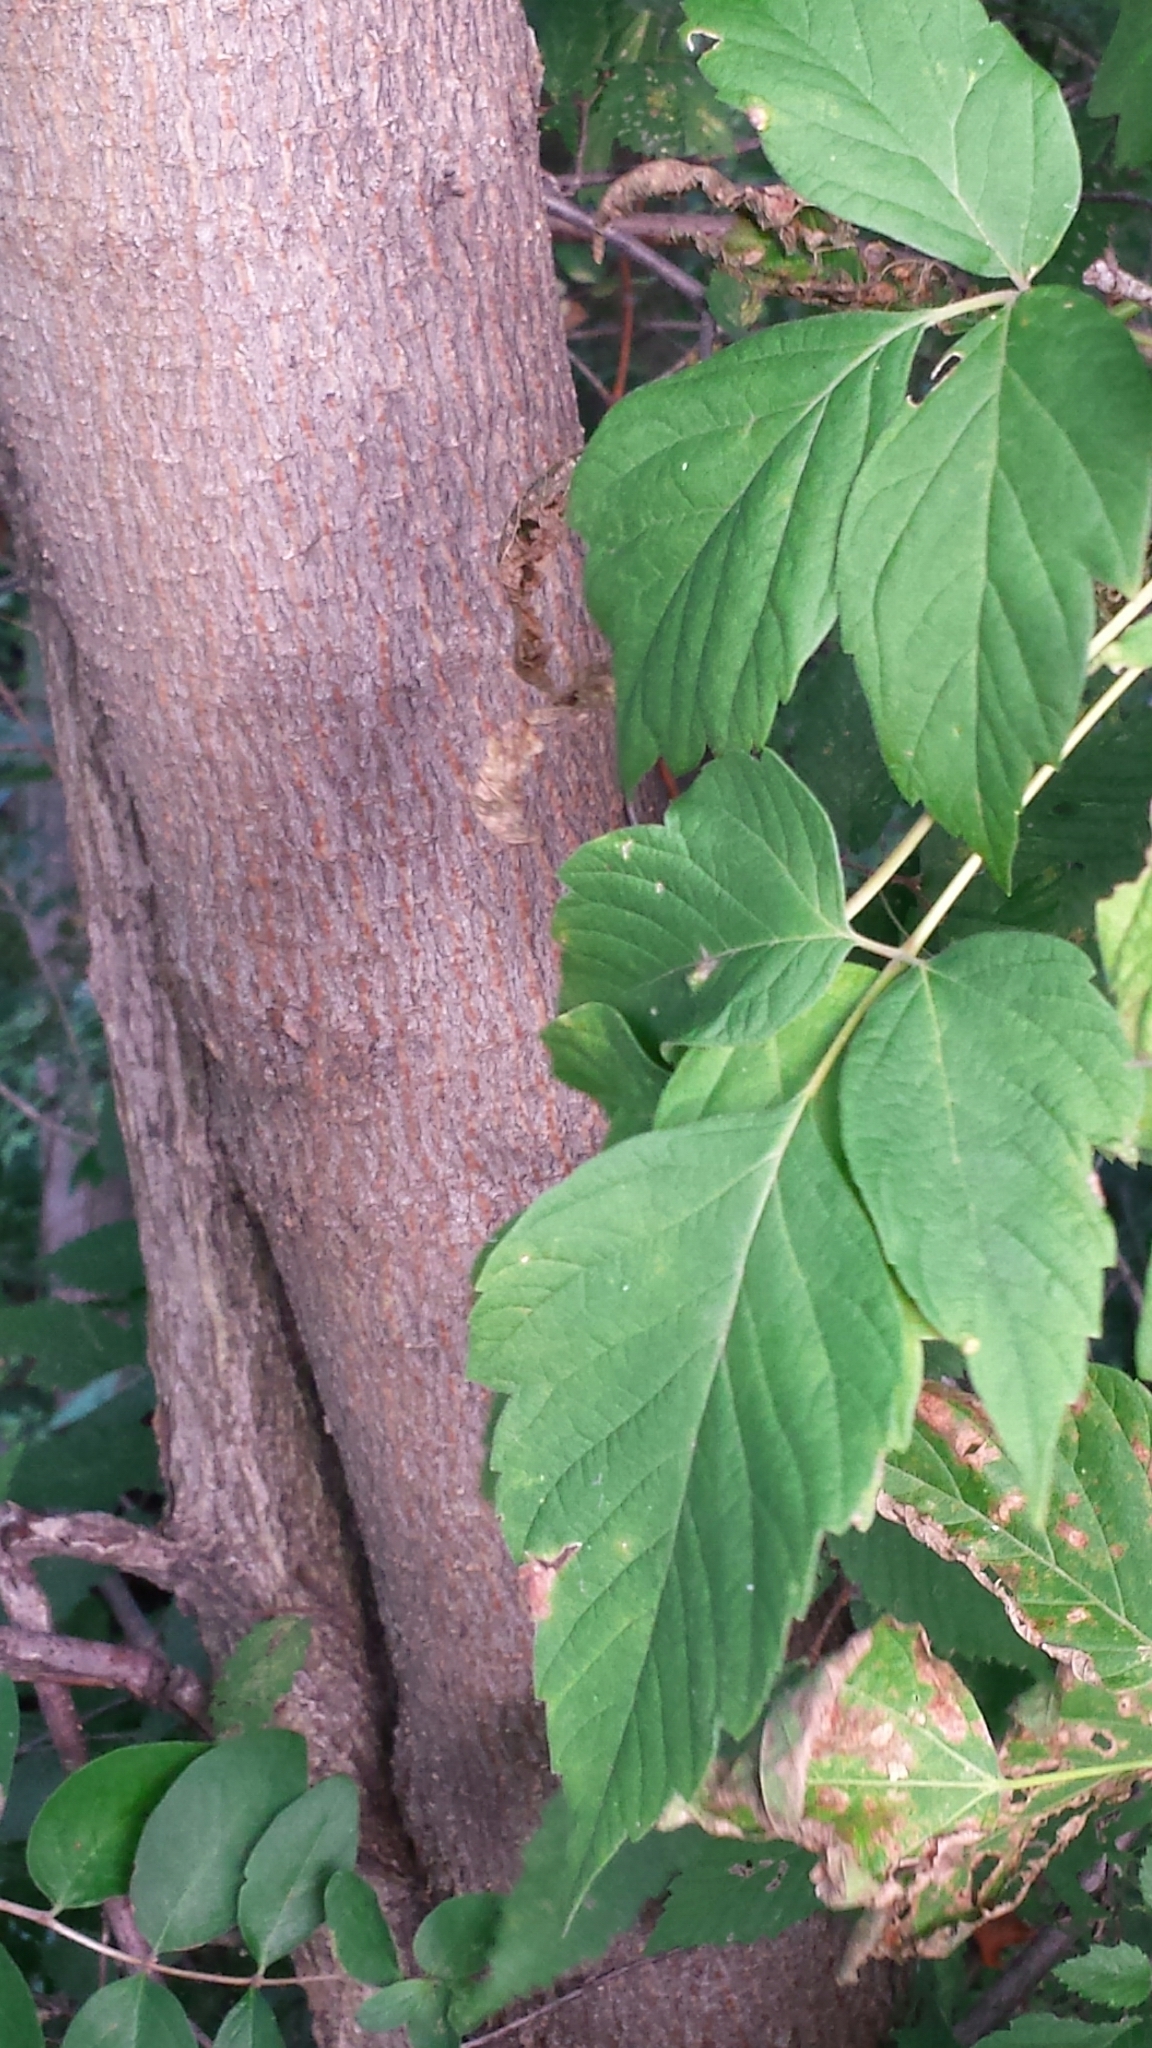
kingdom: Plantae
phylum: Tracheophyta
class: Magnoliopsida
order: Sapindales
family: Sapindaceae
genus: Acer
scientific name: Acer negundo
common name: Ashleaf maple
